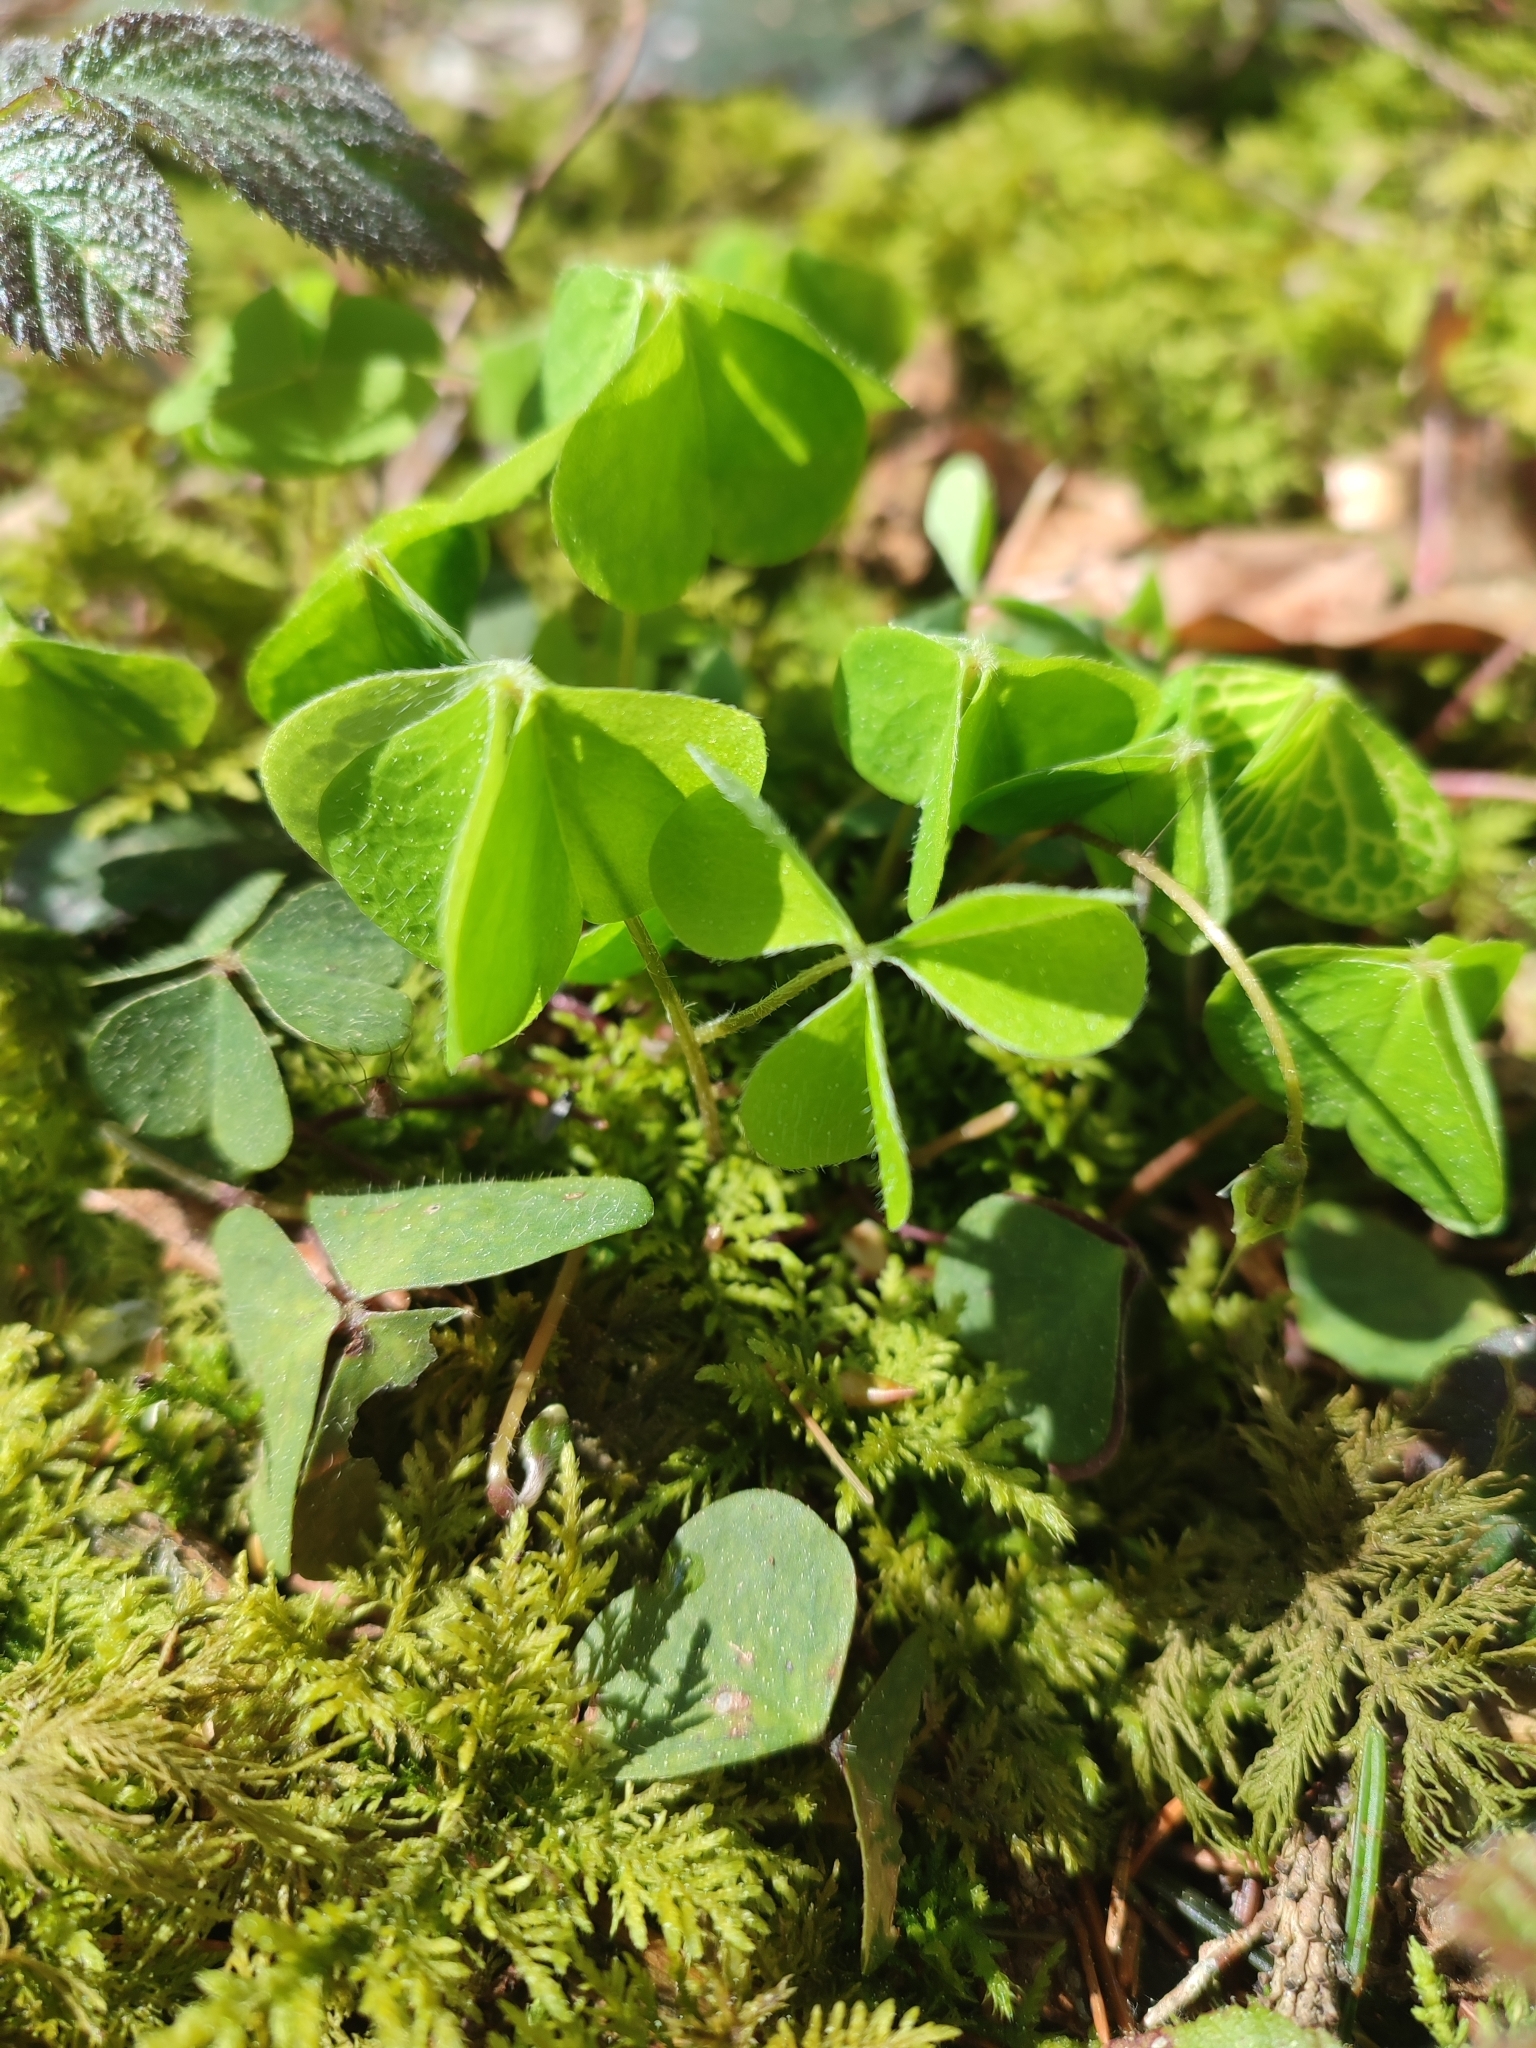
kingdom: Plantae
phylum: Tracheophyta
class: Magnoliopsida
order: Oxalidales
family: Oxalidaceae
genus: Oxalis
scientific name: Oxalis acetosella
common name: Wood-sorrel
